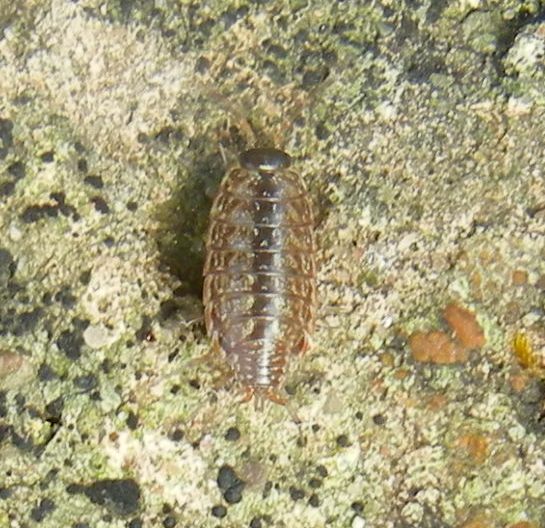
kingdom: Animalia
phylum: Arthropoda
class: Malacostraca
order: Isopoda
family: Philosciidae
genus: Philoscia
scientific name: Philoscia muscorum
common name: Common striped woodlouse
